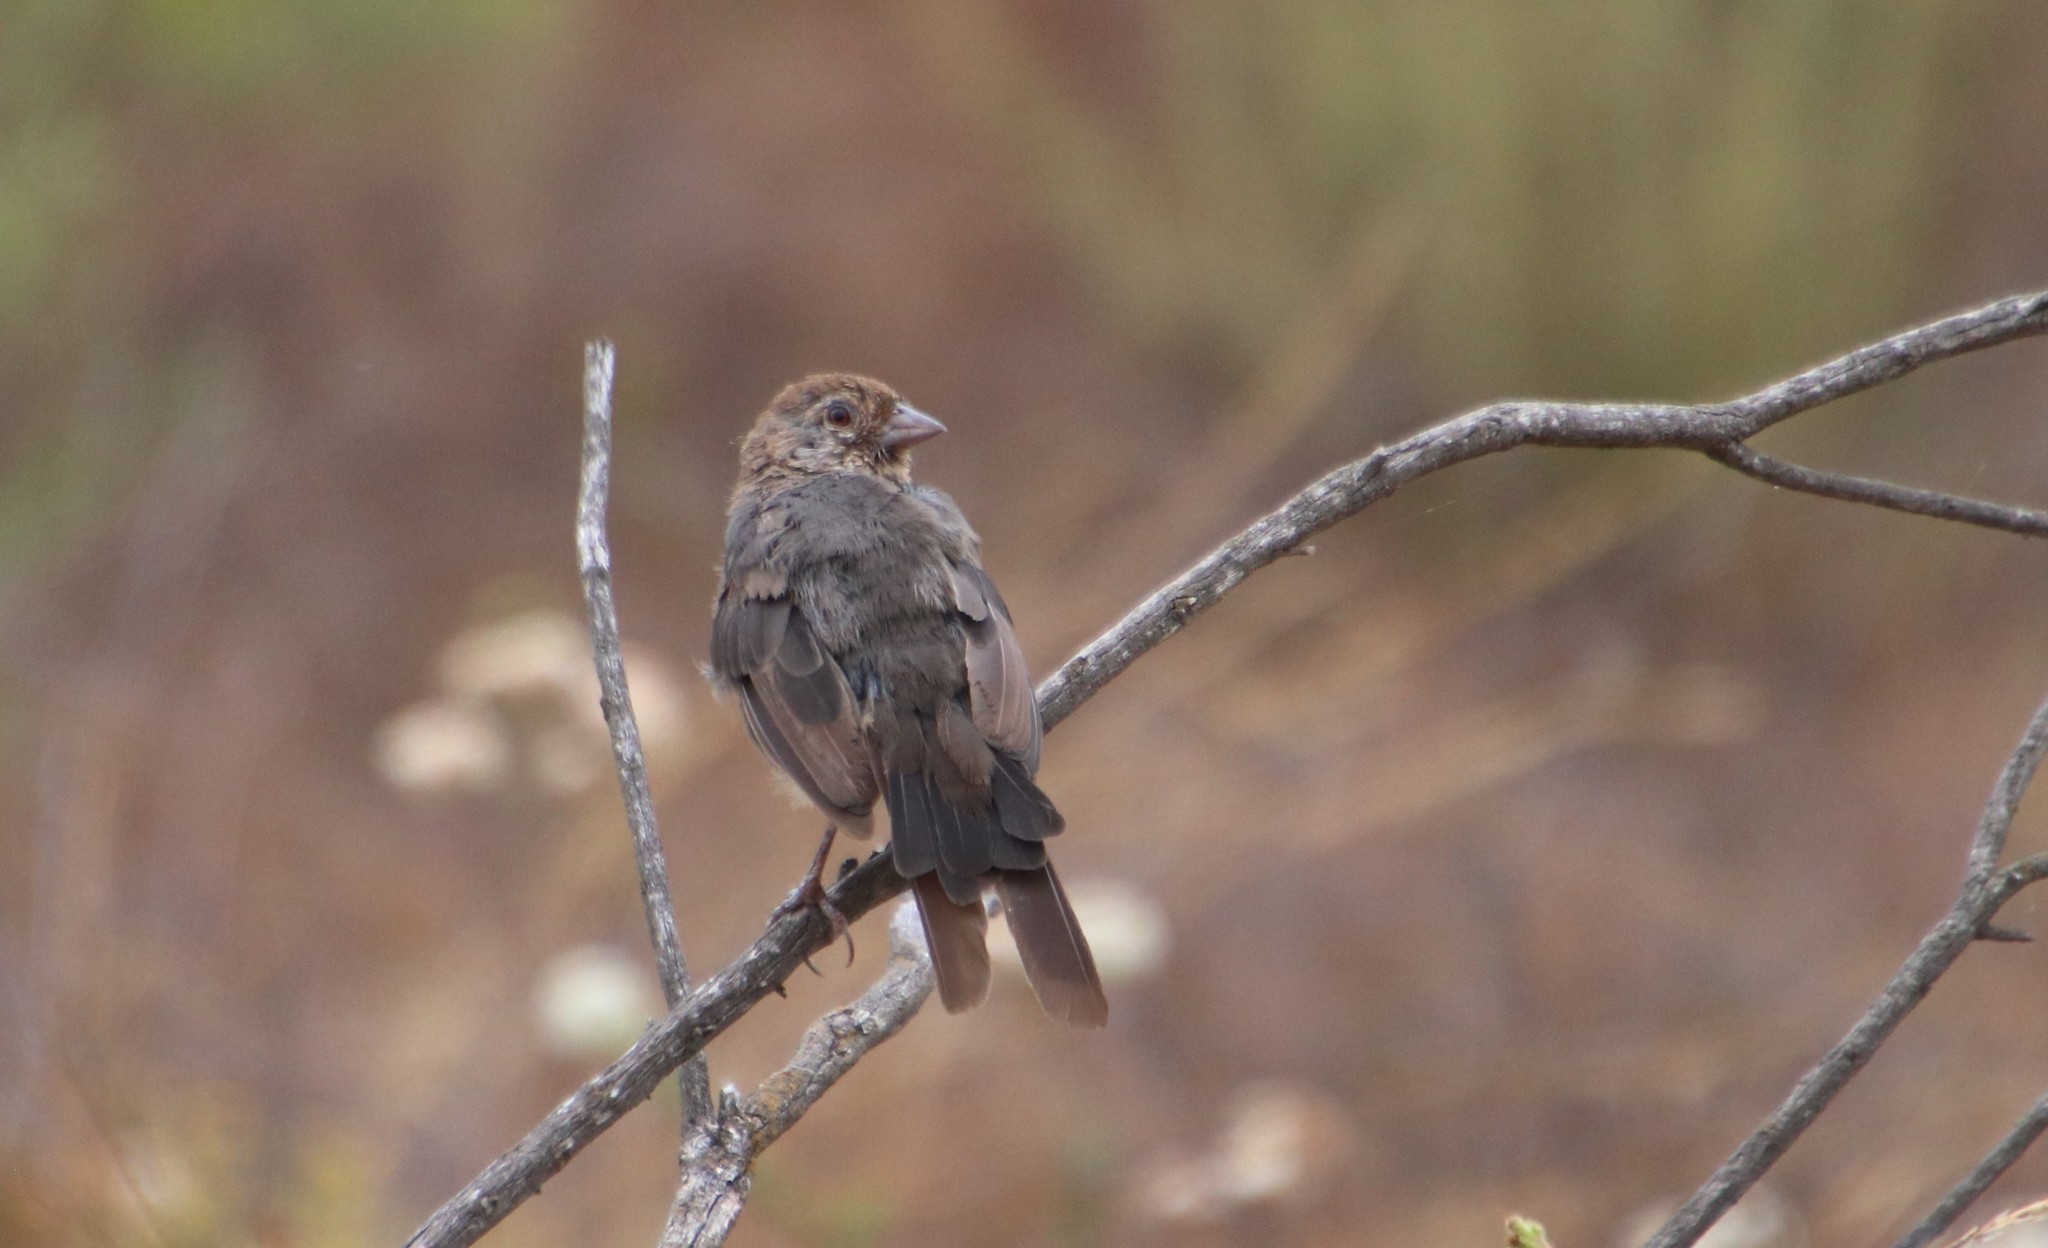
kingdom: Animalia
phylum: Chordata
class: Aves
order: Passeriformes
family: Passerellidae
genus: Melozone
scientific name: Melozone crissalis
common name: California towhee
